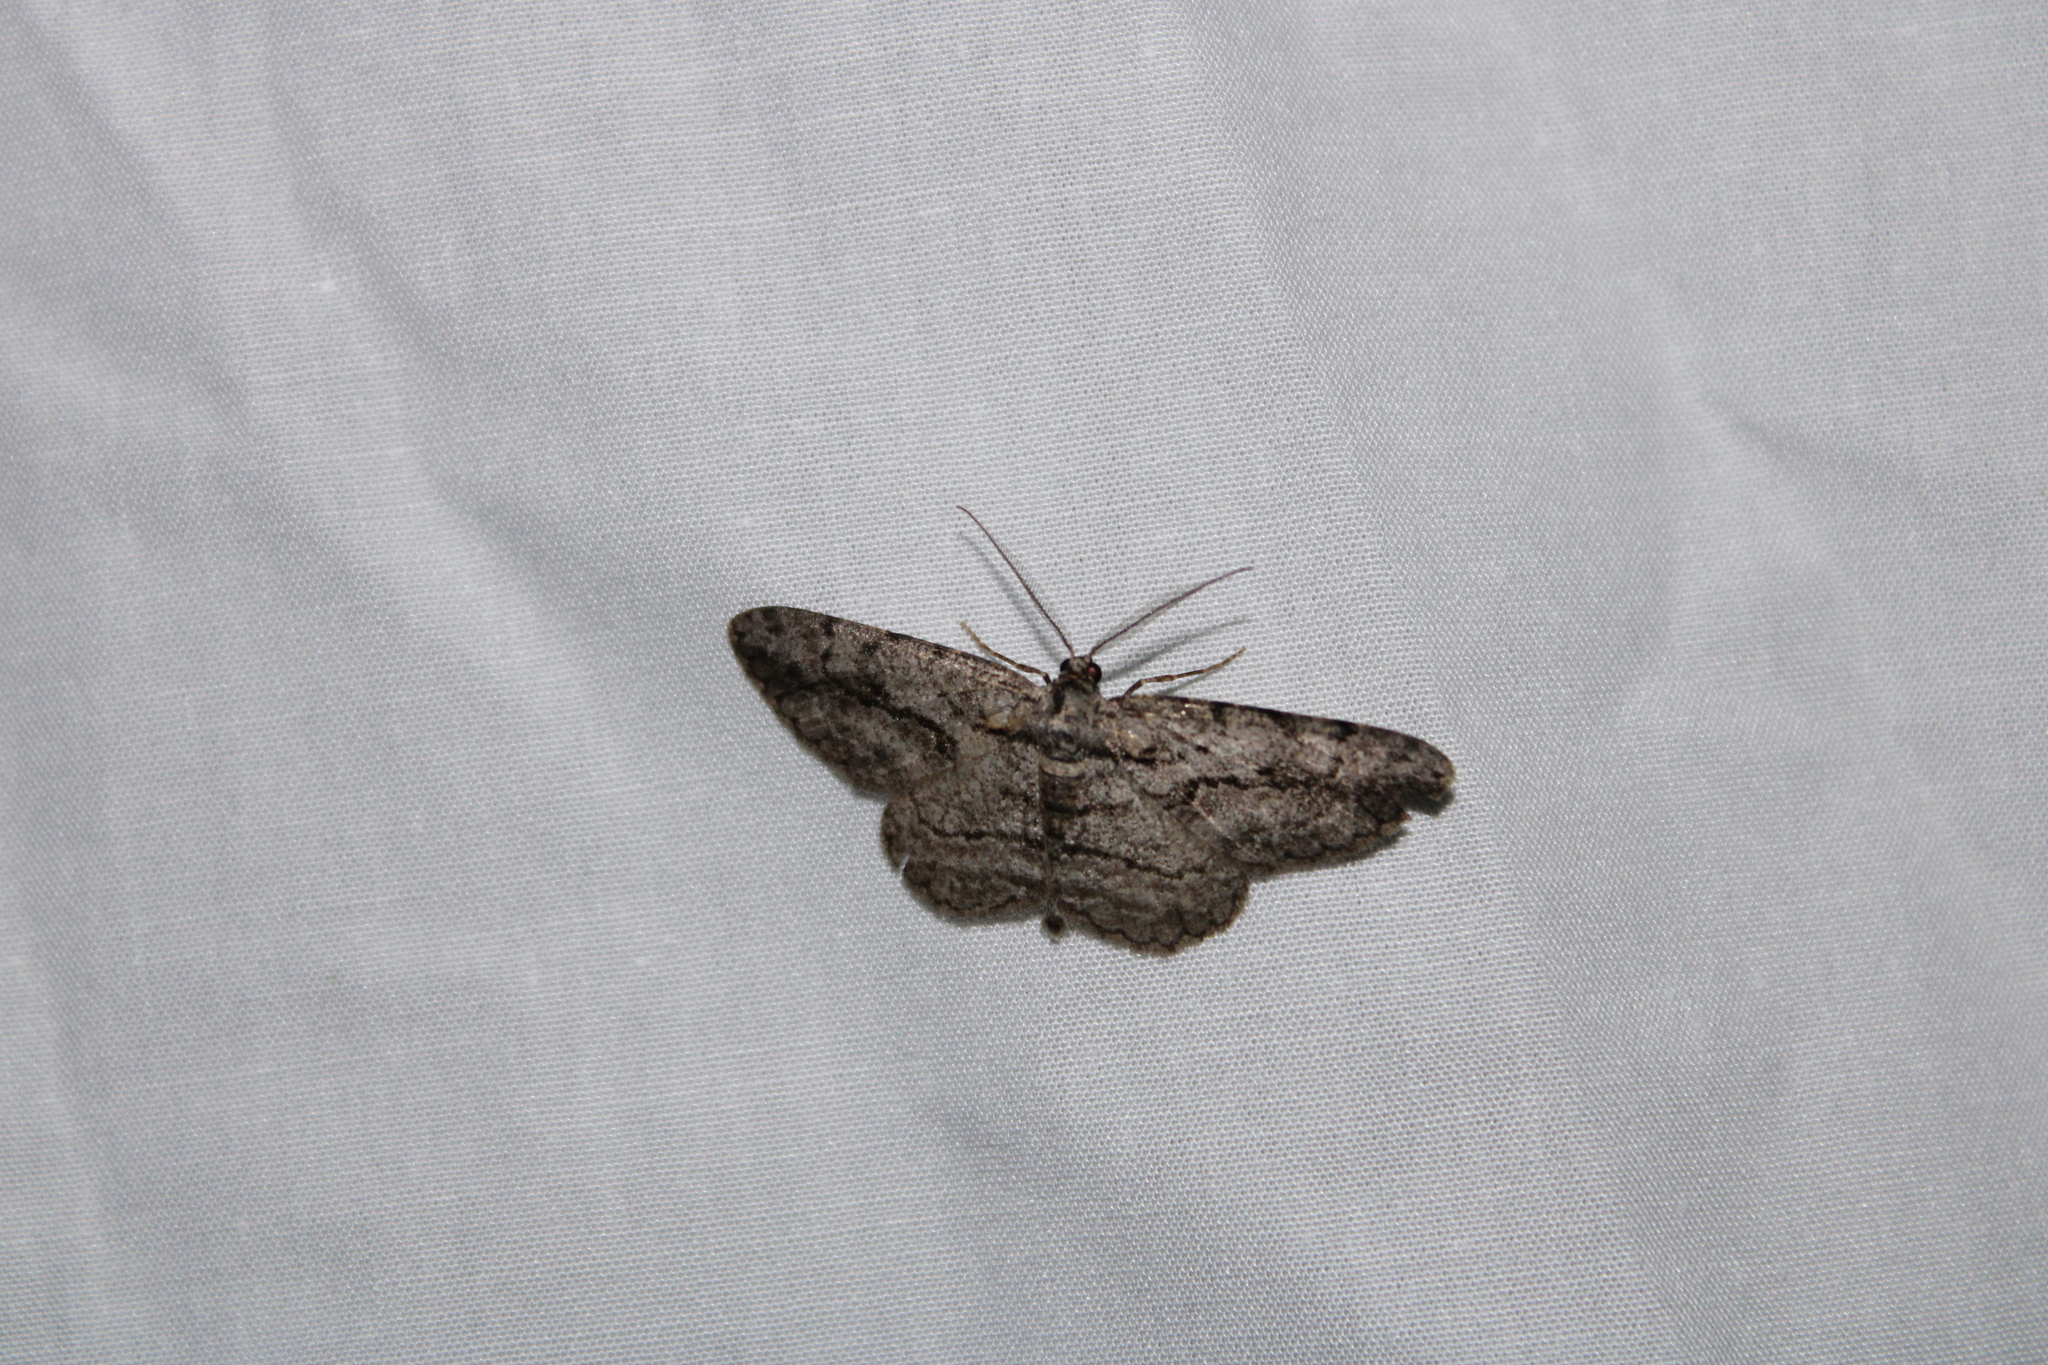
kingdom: Animalia
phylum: Arthropoda
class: Insecta
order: Lepidoptera
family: Geometridae
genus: Anavitrinella
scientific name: Anavitrinella pampinaria
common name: Common gray
